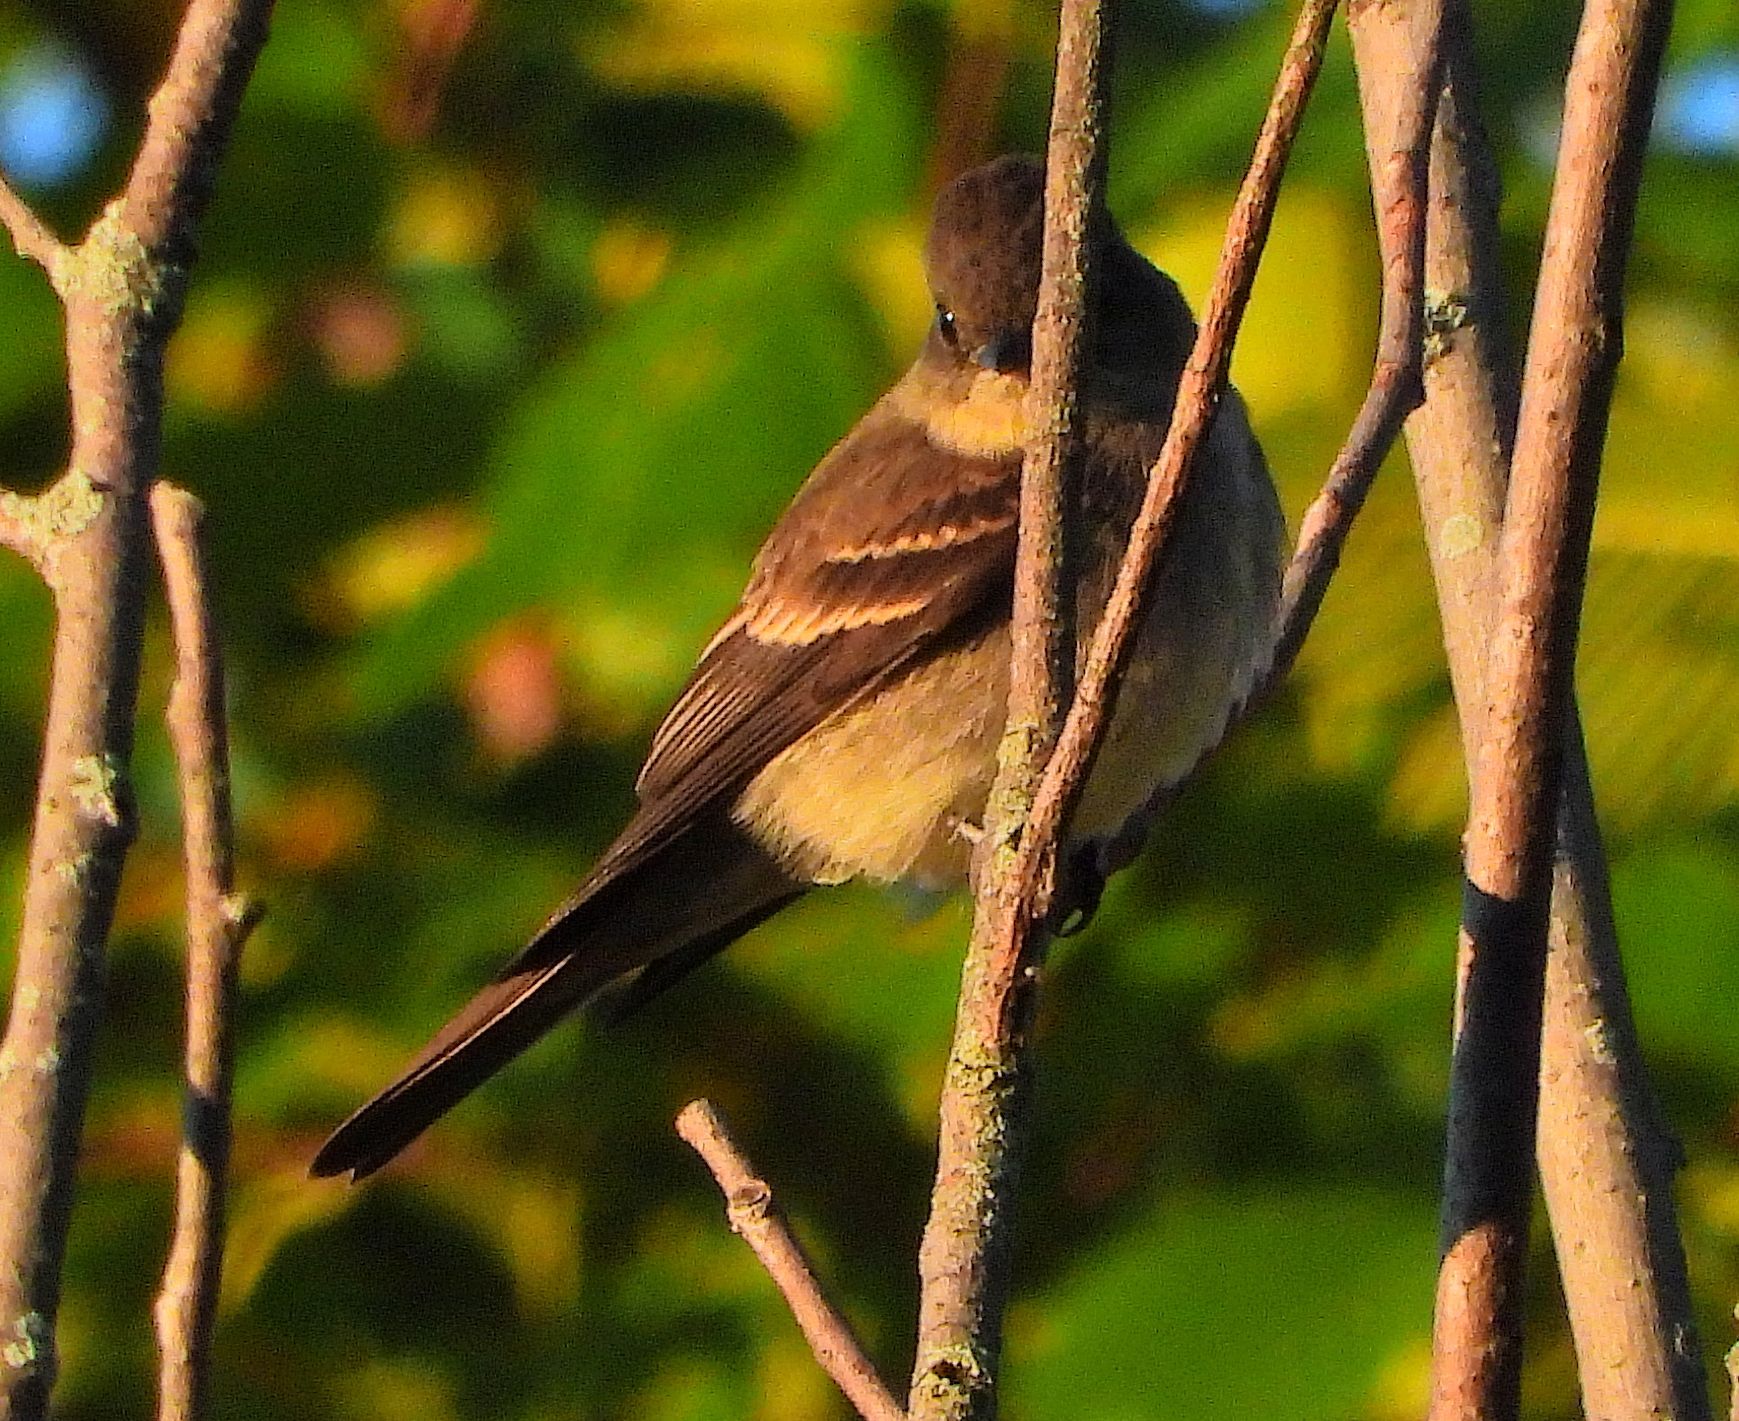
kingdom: Animalia
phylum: Chordata
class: Aves
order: Passeriformes
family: Tyrannidae
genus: Contopus
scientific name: Contopus virens
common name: Eastern wood-pewee
